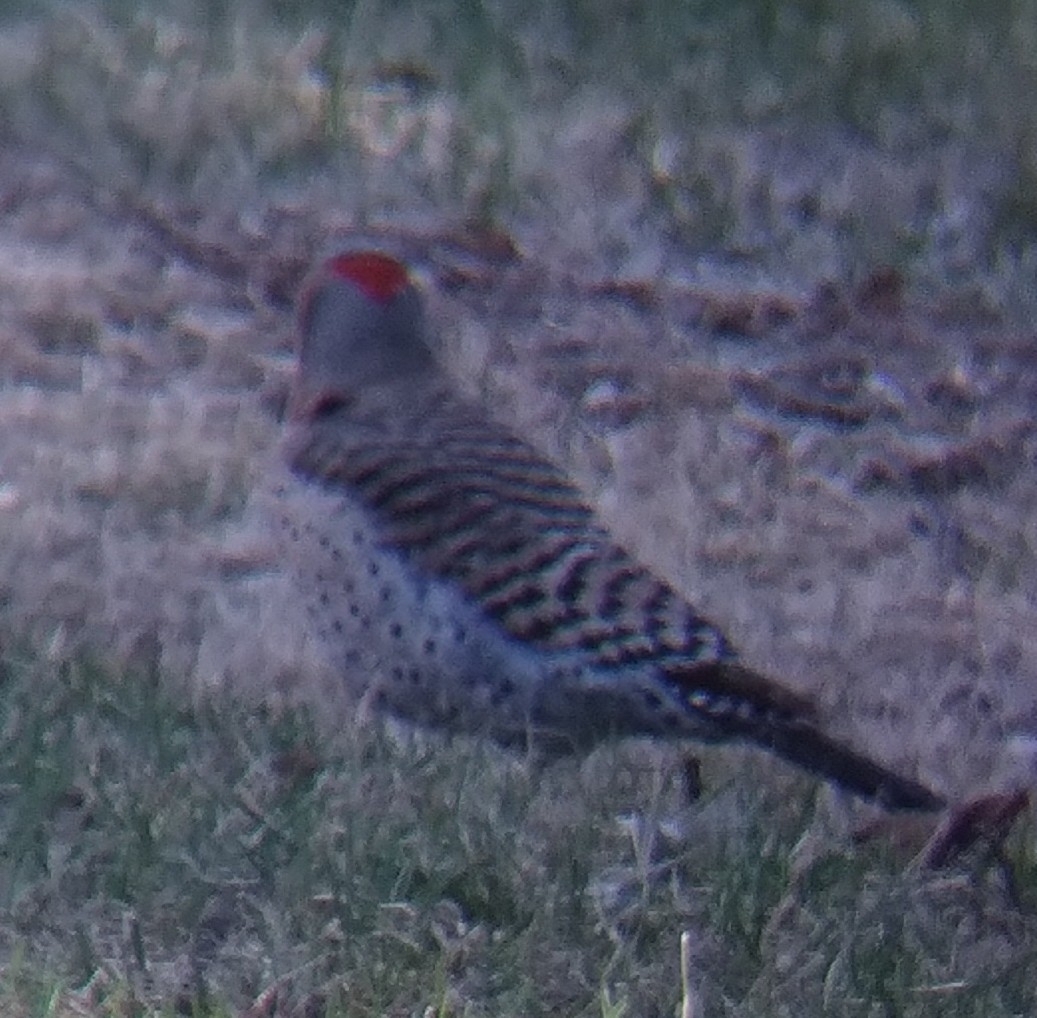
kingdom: Animalia
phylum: Chordata
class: Aves
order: Piciformes
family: Picidae
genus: Colaptes
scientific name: Colaptes auratus
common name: Northern flicker
